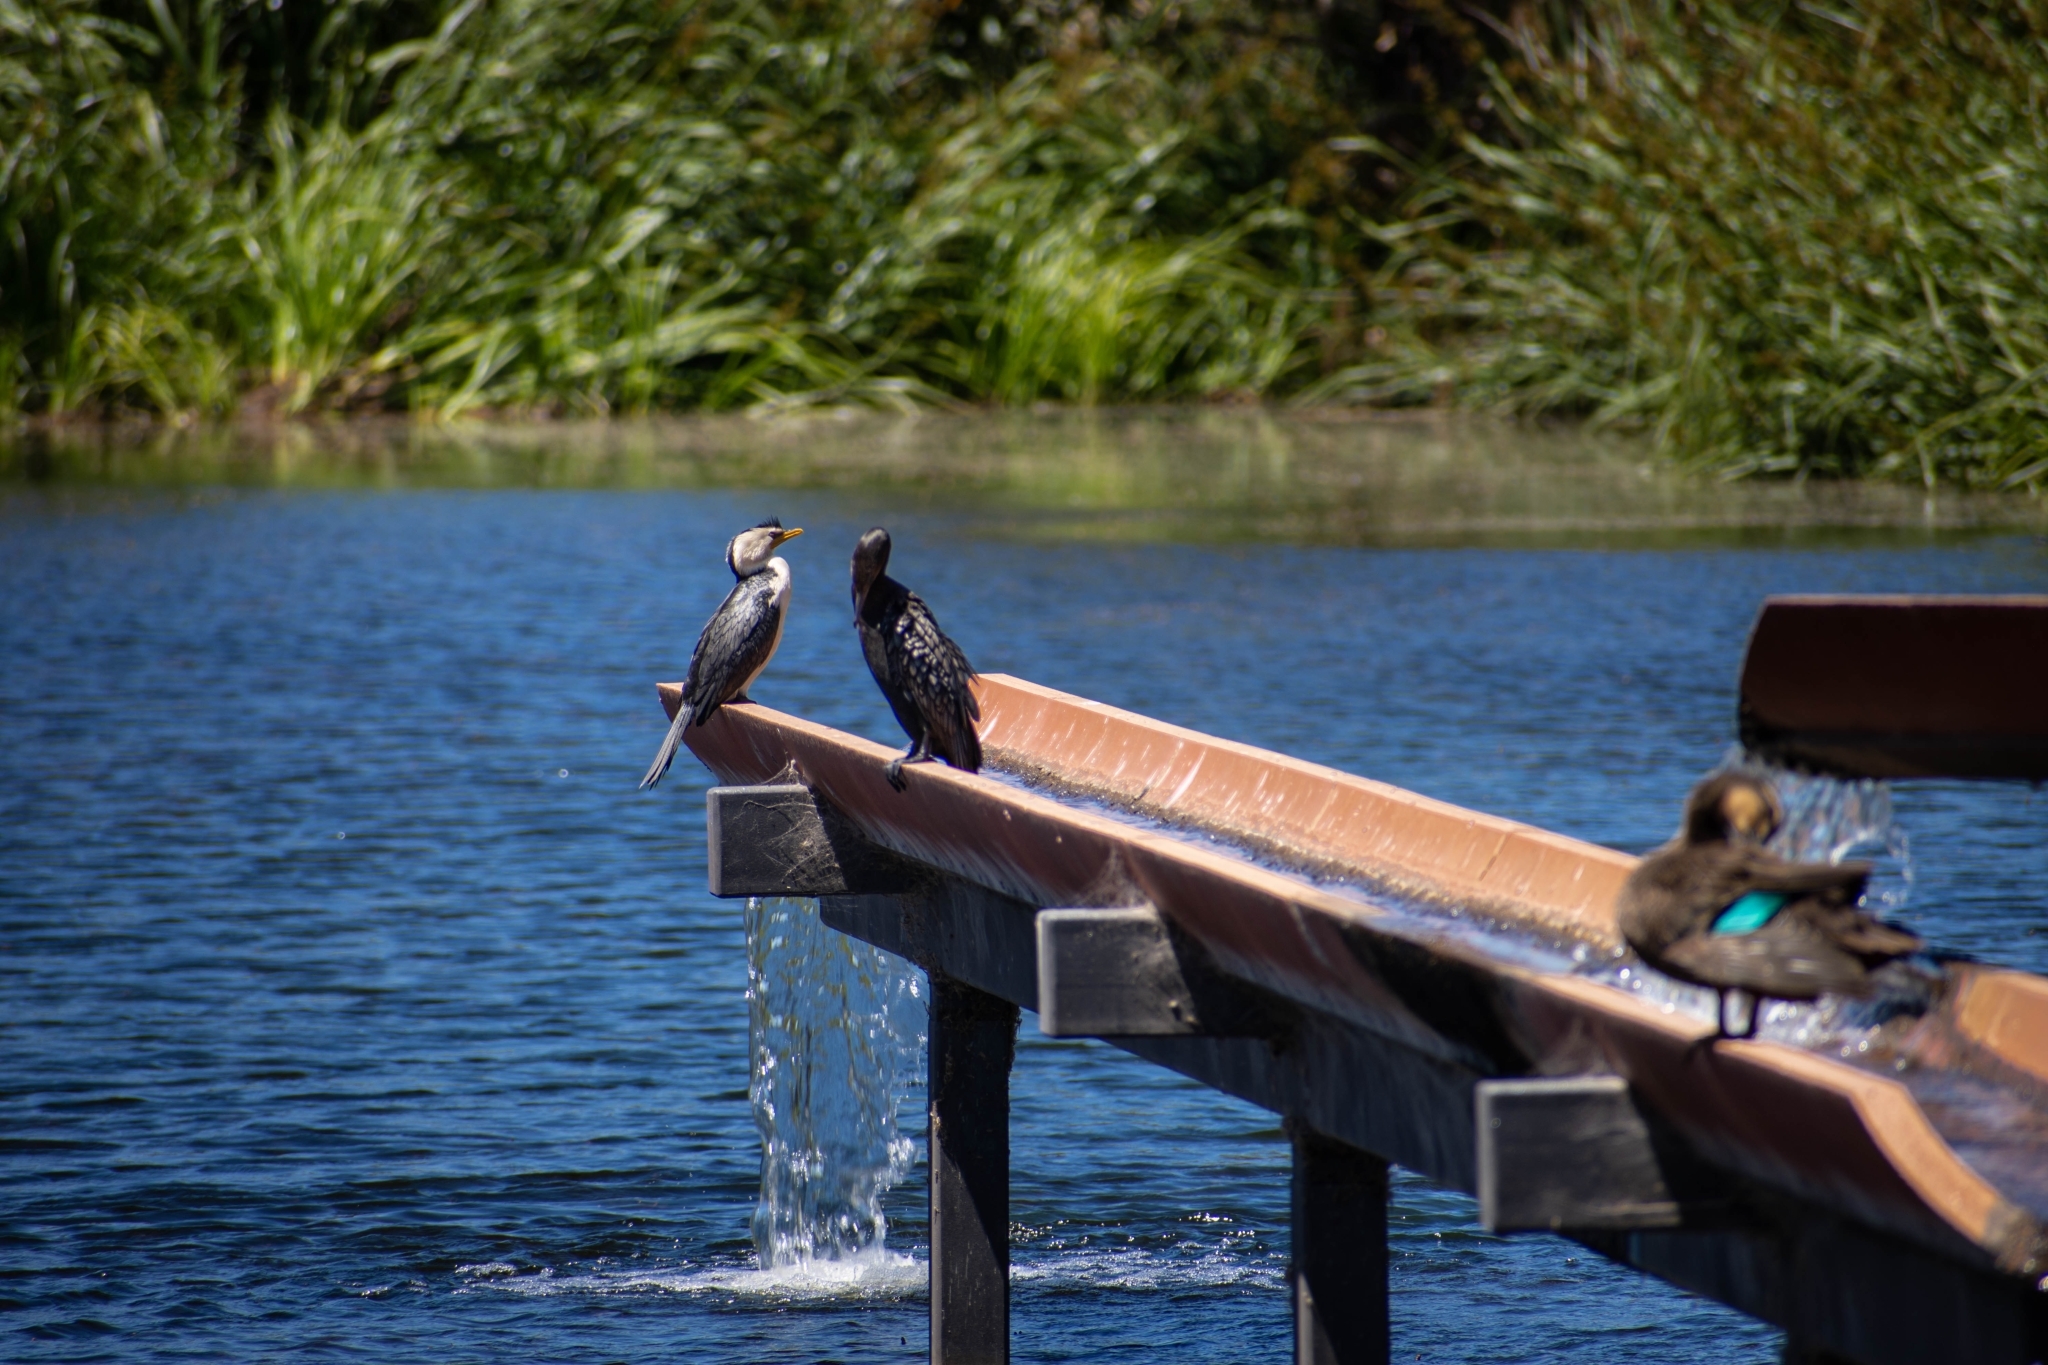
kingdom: Animalia
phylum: Chordata
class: Aves
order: Suliformes
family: Phalacrocoracidae
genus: Microcarbo
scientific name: Microcarbo melanoleucos
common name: Little pied cormorant
